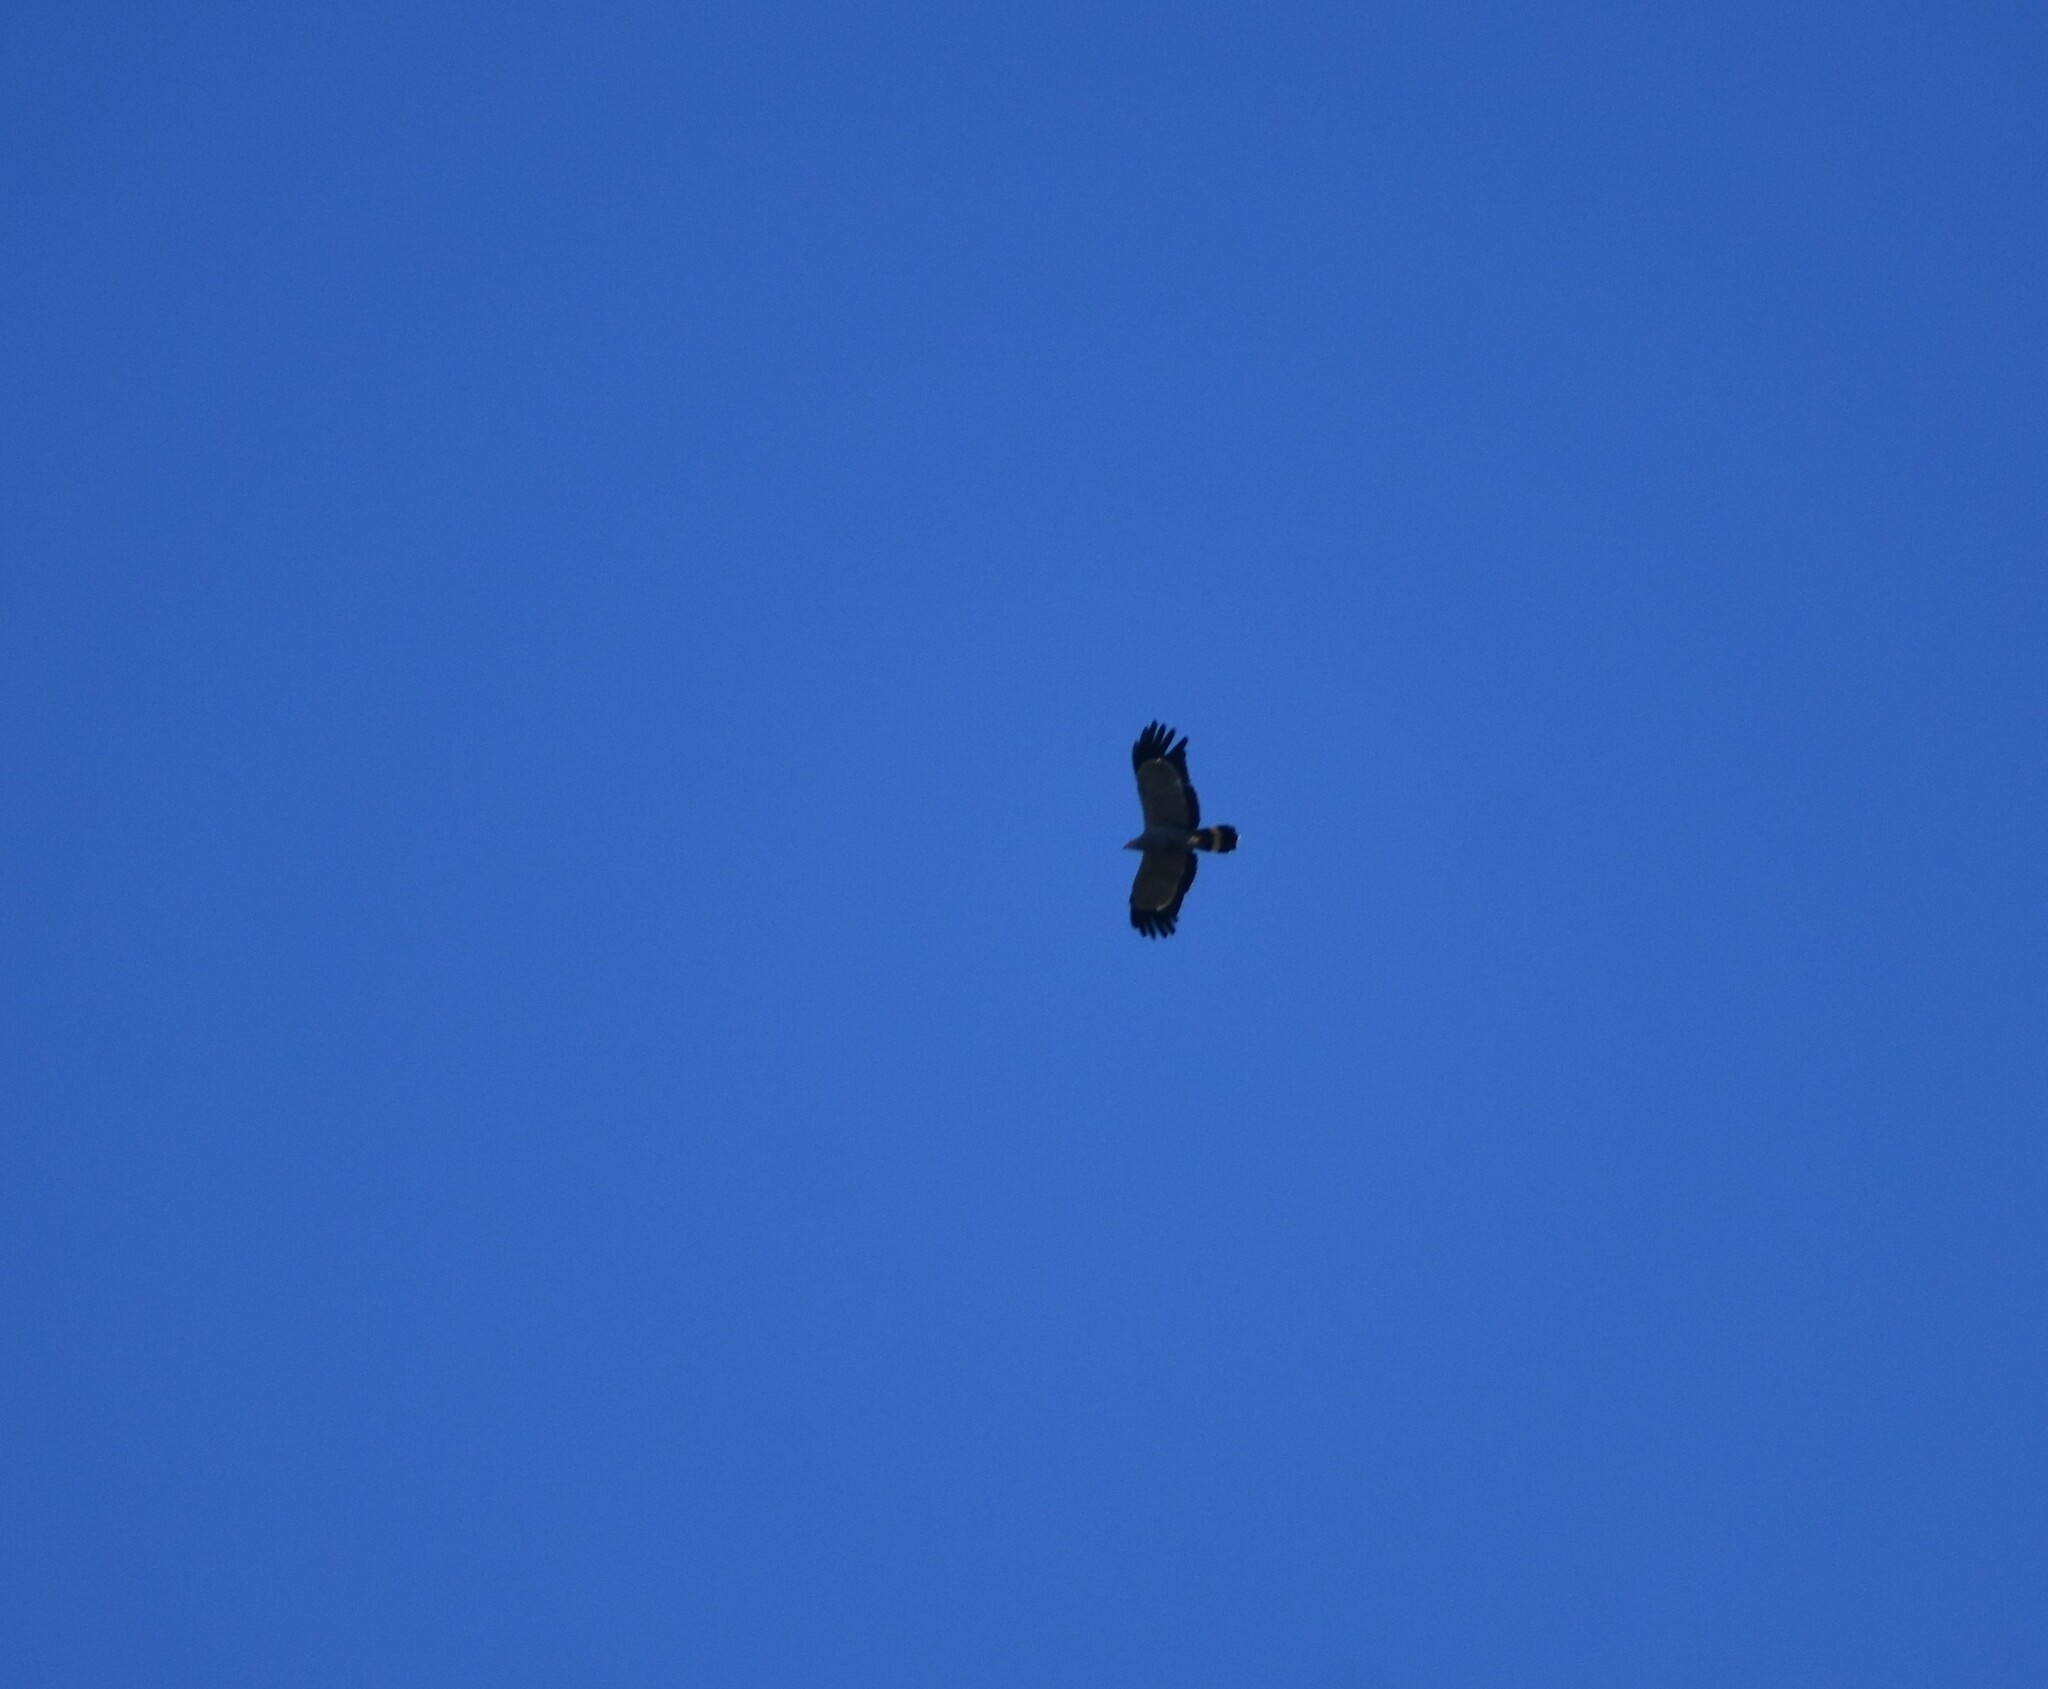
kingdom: Animalia
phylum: Chordata
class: Aves
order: Accipitriformes
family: Accipitridae
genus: Polyboroides
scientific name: Polyboroides typus
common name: African harrier-hawk
